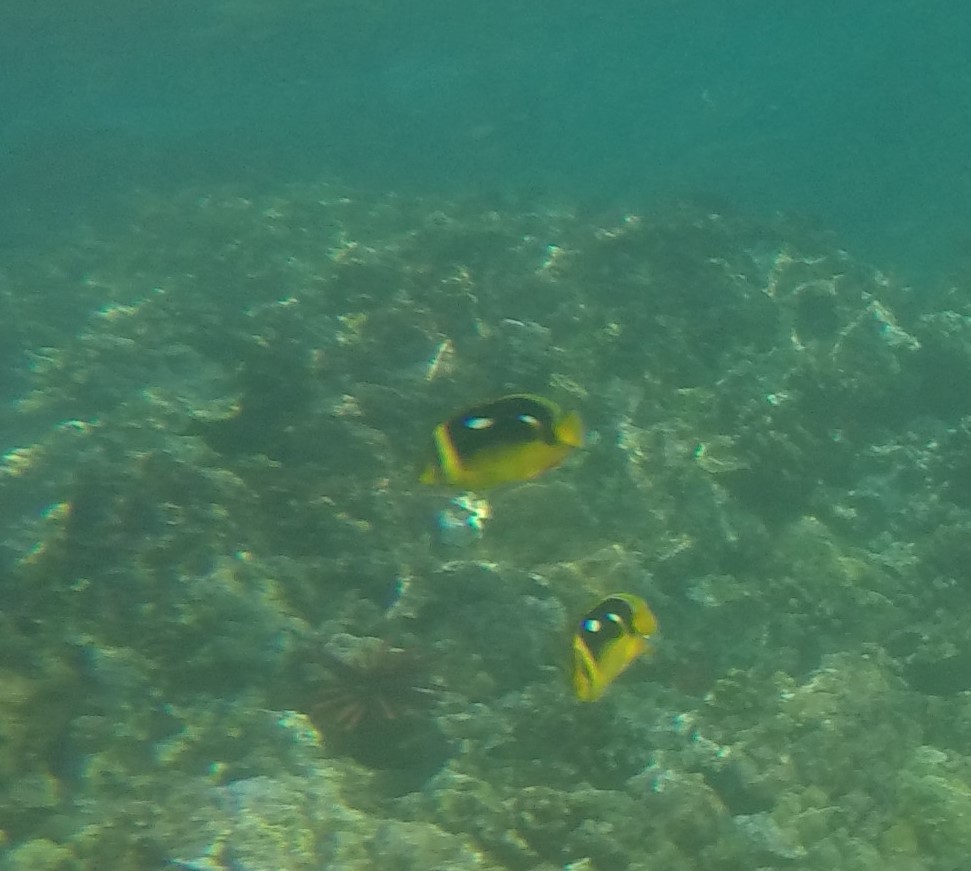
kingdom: Animalia
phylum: Chordata
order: Perciformes
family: Chaetodontidae
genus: Chaetodon
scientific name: Chaetodon quadrimaculatus
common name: Fourspot butterflyfish
